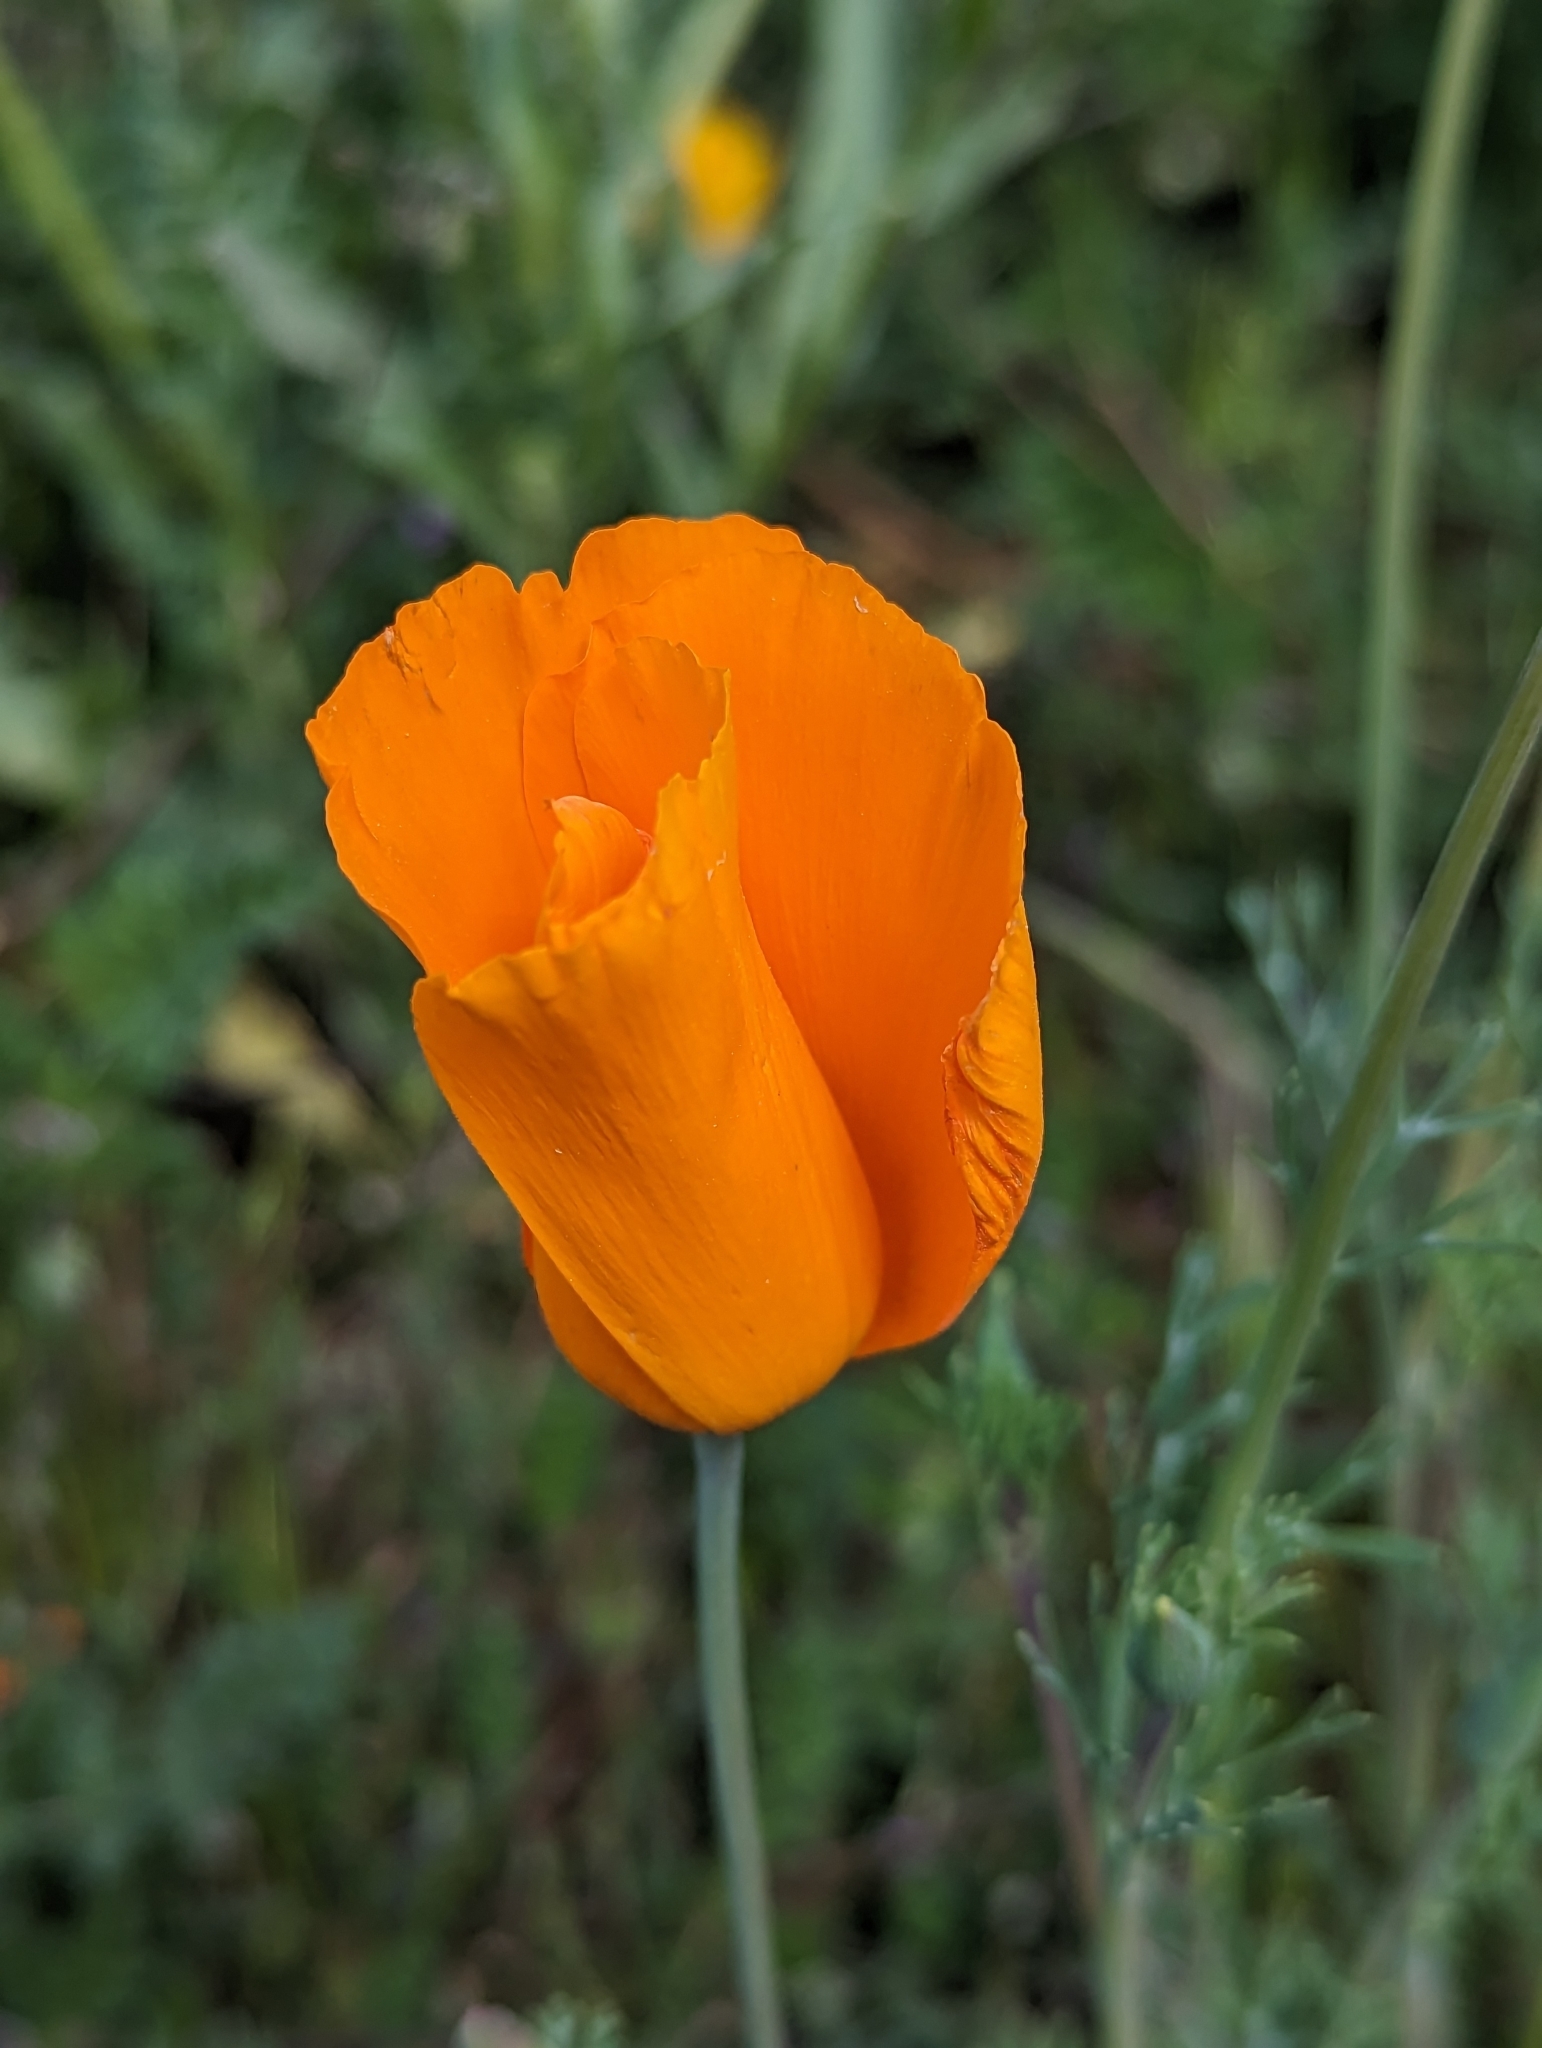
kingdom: Plantae
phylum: Tracheophyta
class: Magnoliopsida
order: Ranunculales
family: Papaveraceae
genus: Eschscholzia
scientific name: Eschscholzia californica
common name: California poppy
